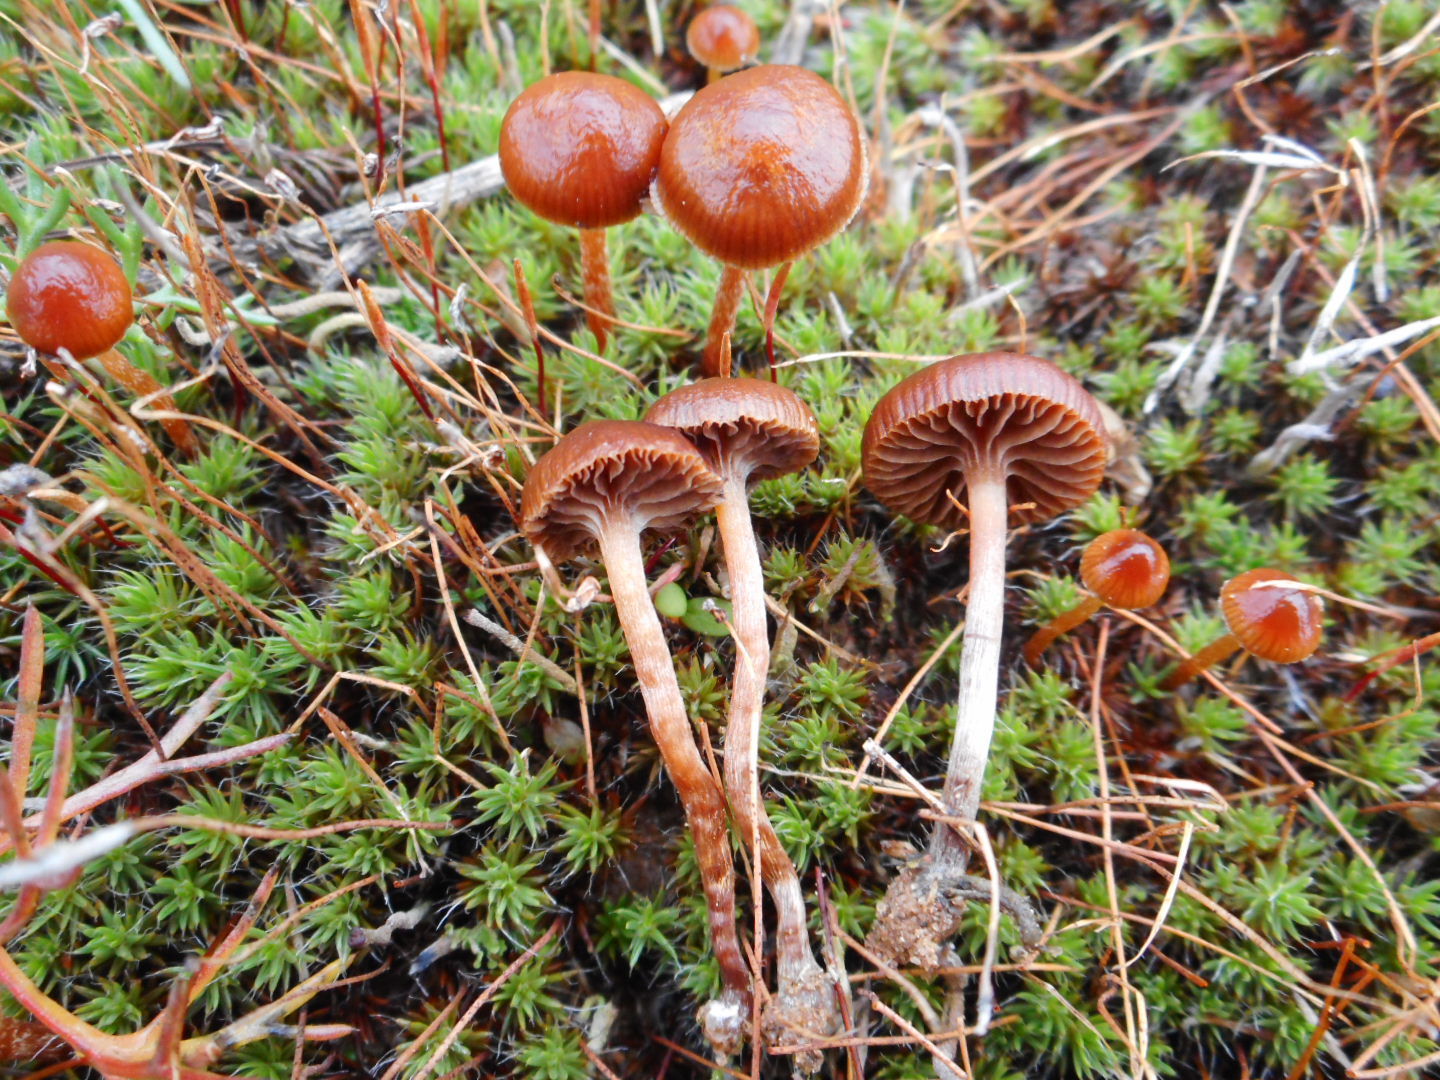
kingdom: Fungi
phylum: Basidiomycota
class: Agaricomycetes
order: Agaricales
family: Strophariaceae
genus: Deconica
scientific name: Deconica montana
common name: Mountain moss deconica
